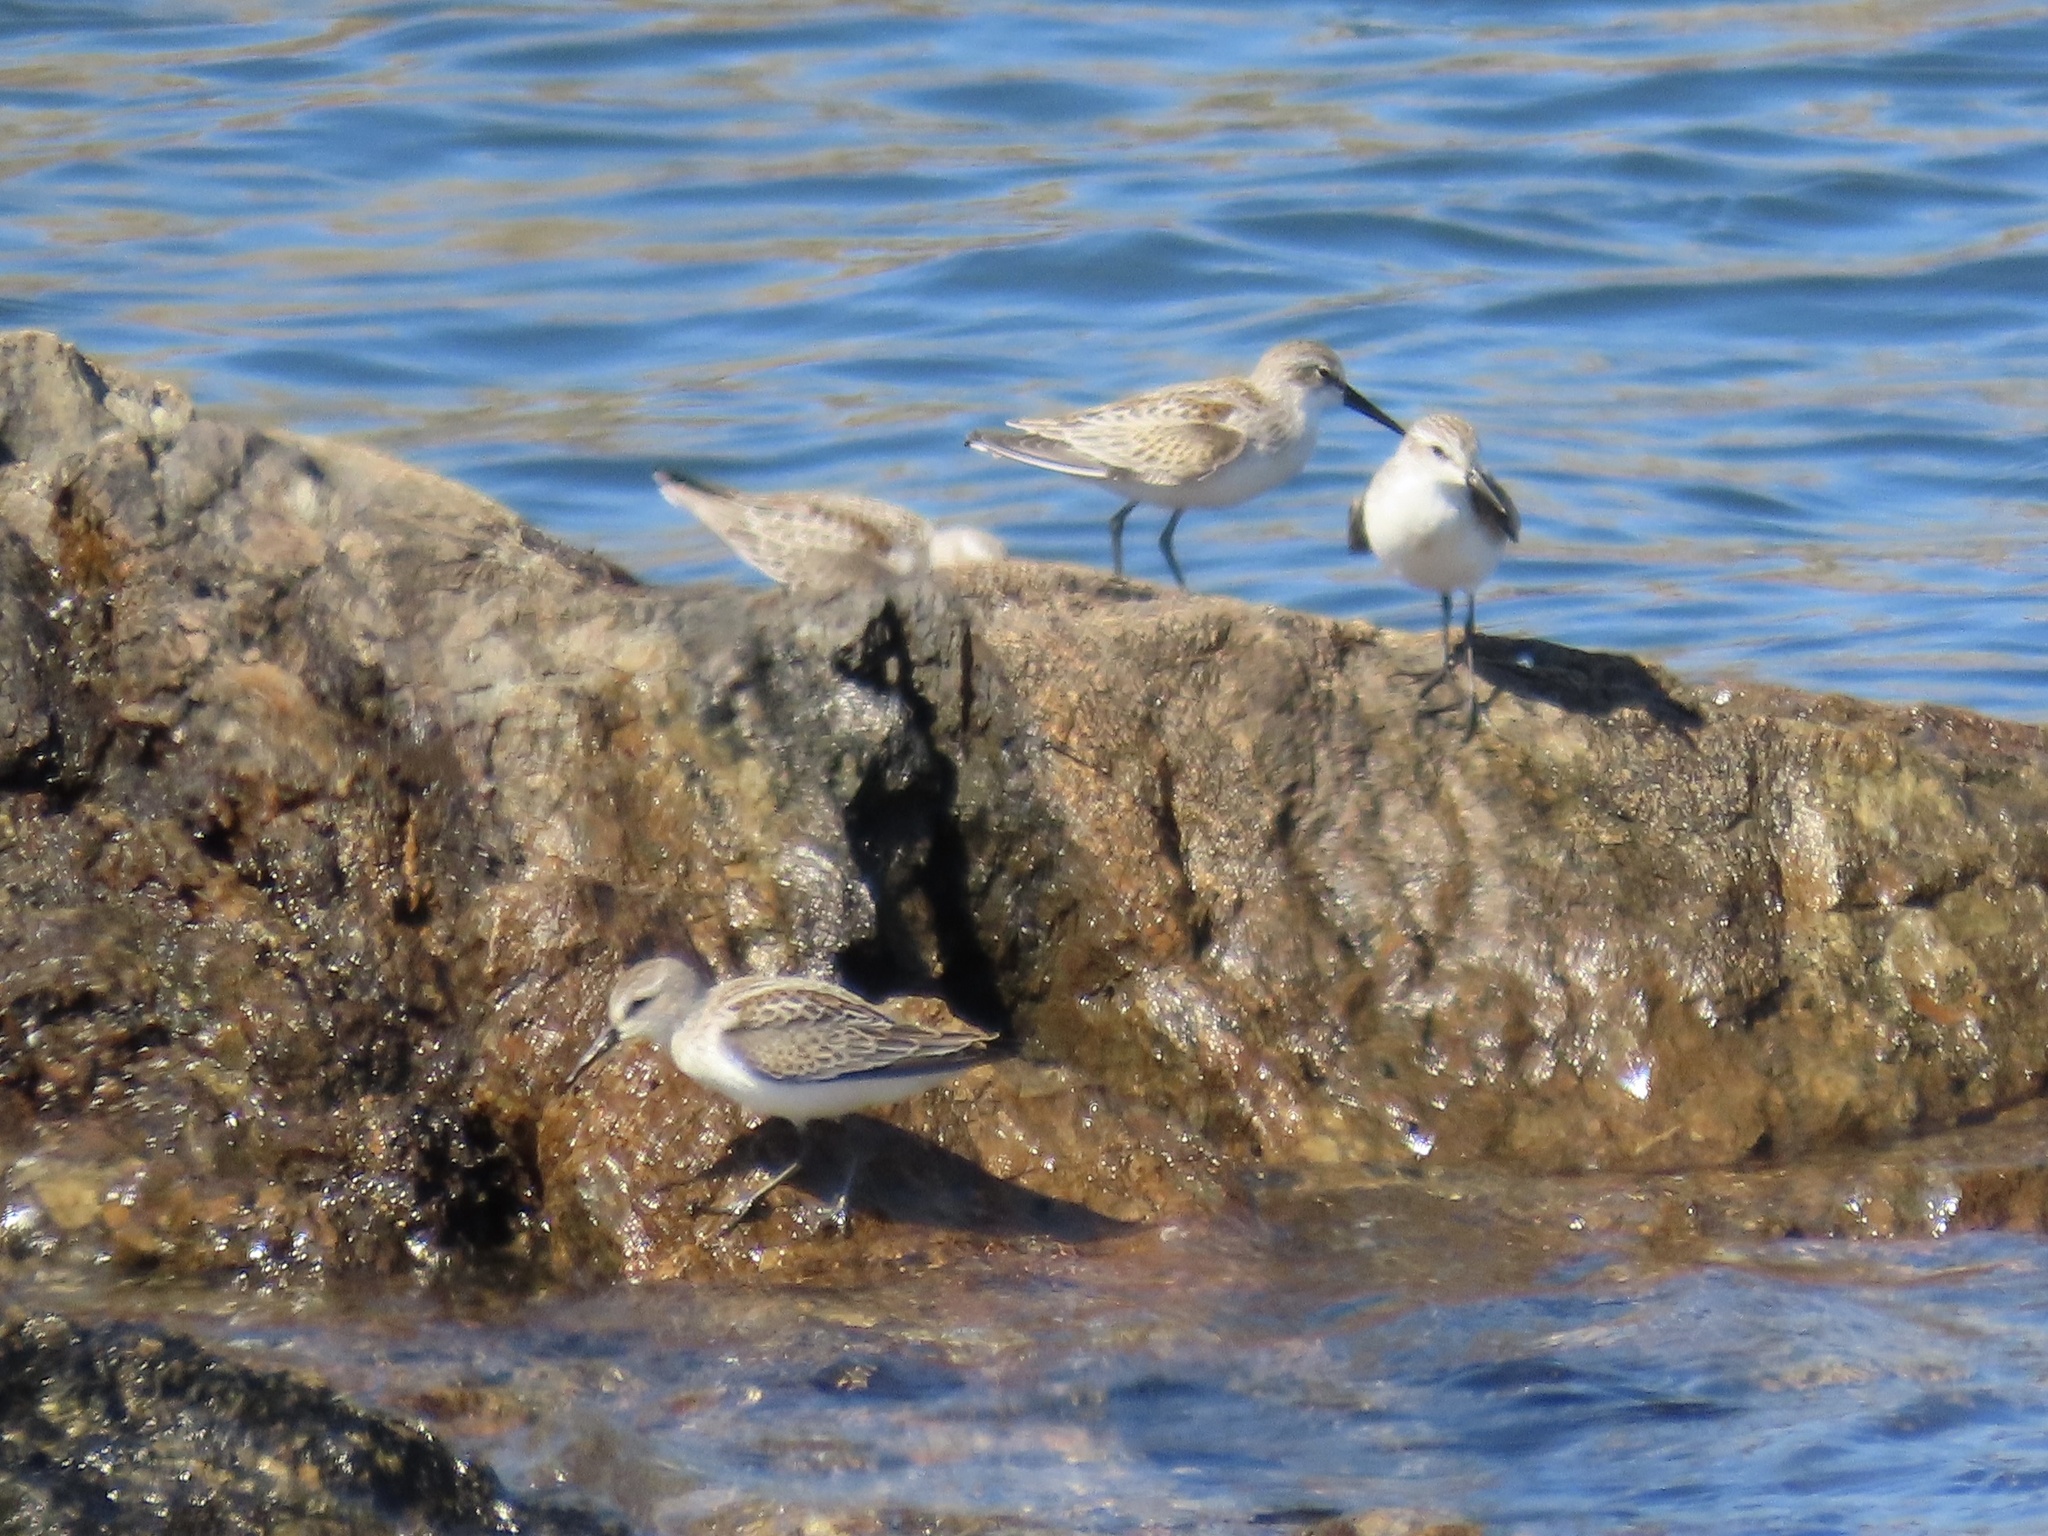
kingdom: Animalia
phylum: Chordata
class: Aves
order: Charadriiformes
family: Scolopacidae
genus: Calidris
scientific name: Calidris mauri
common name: Western sandpiper
